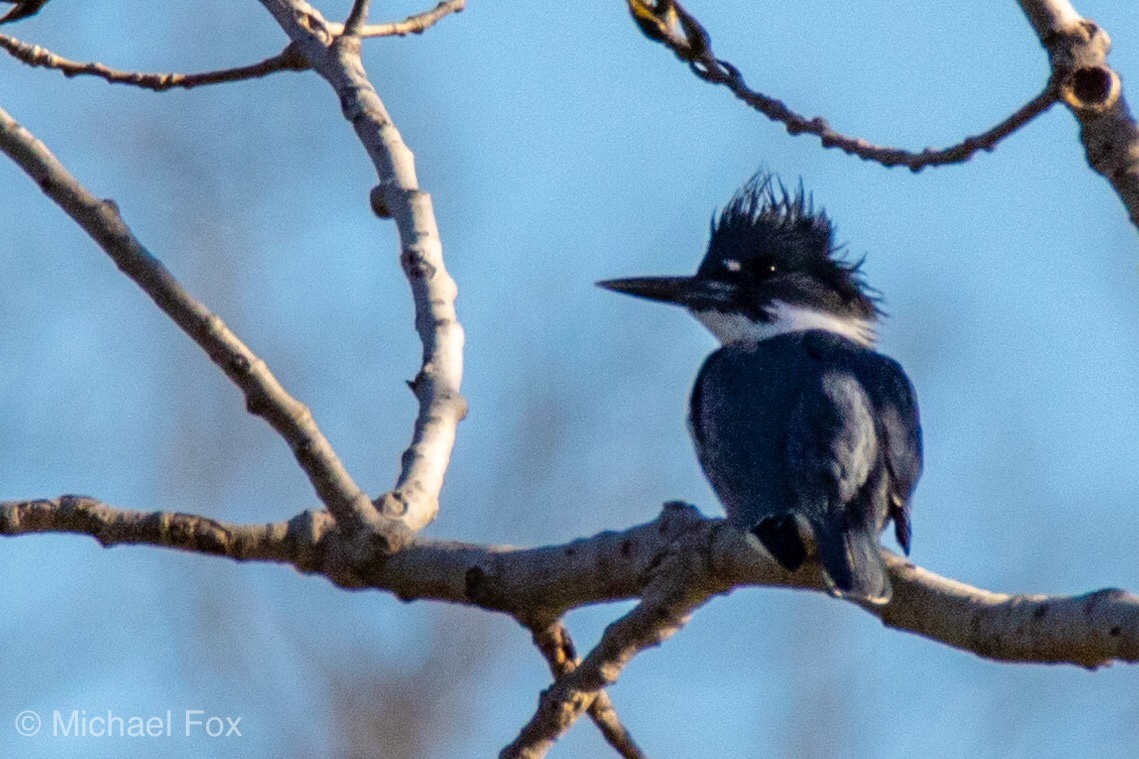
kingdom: Animalia
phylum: Chordata
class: Aves
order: Coraciiformes
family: Alcedinidae
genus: Megaceryle
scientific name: Megaceryle alcyon
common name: Belted kingfisher
